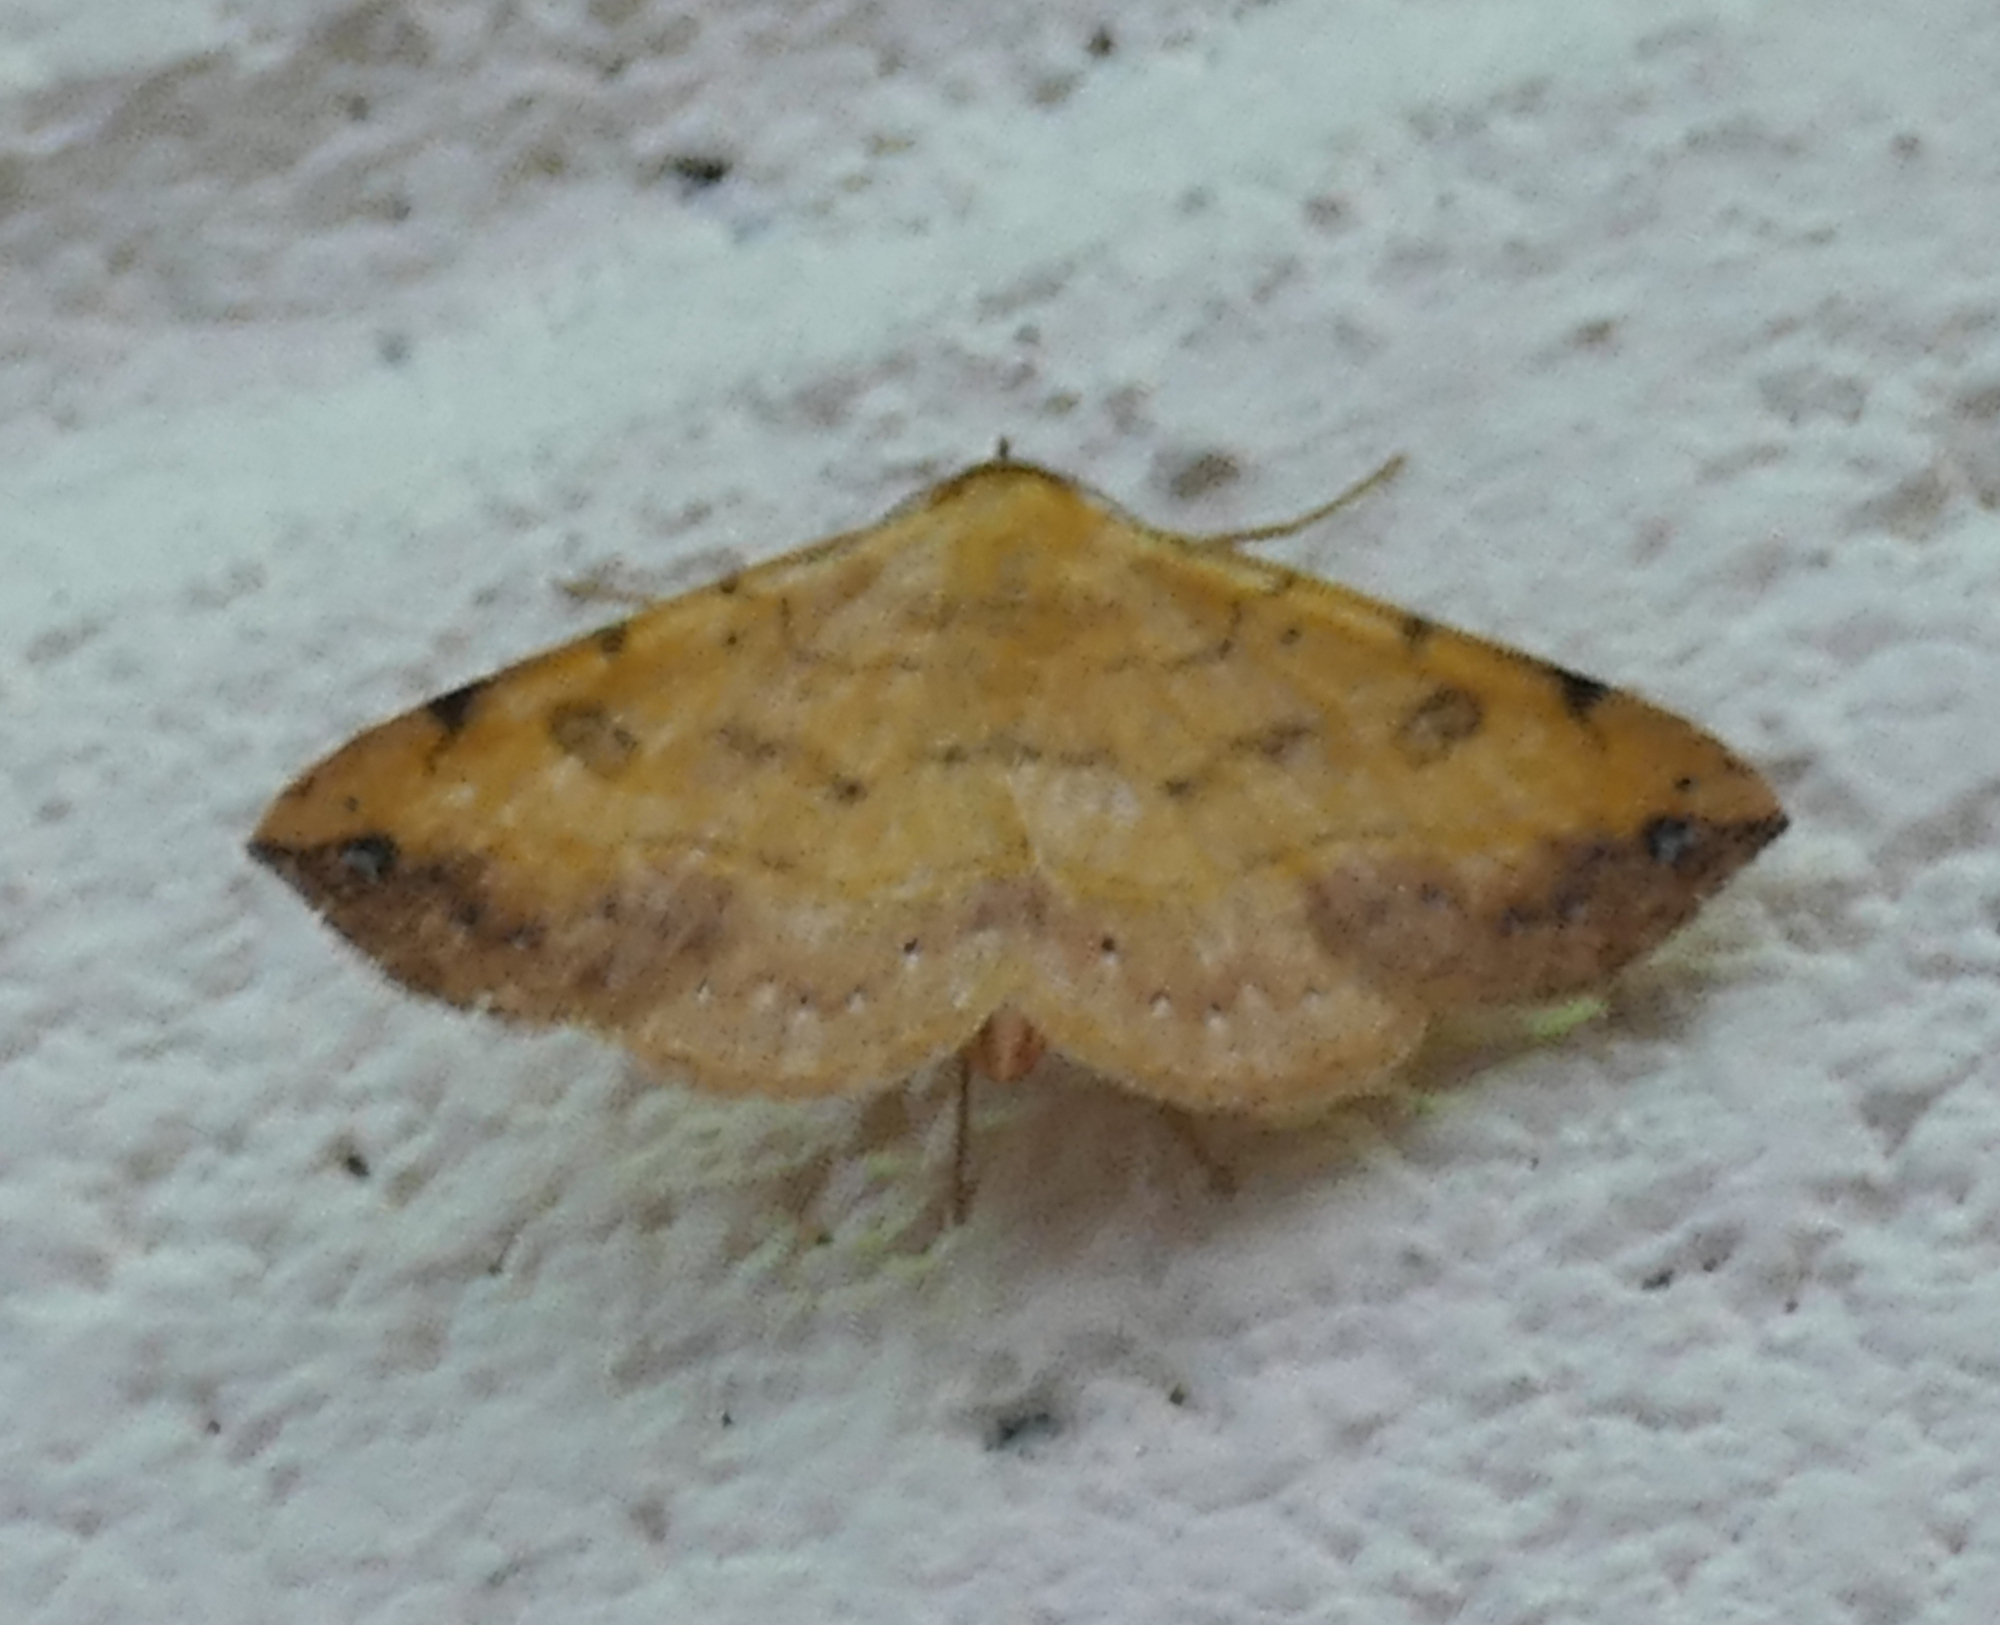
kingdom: Animalia
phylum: Arthropoda
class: Insecta
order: Lepidoptera
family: Erebidae
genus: Hemeroplanis
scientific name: Hemeroplanis scopulepes
